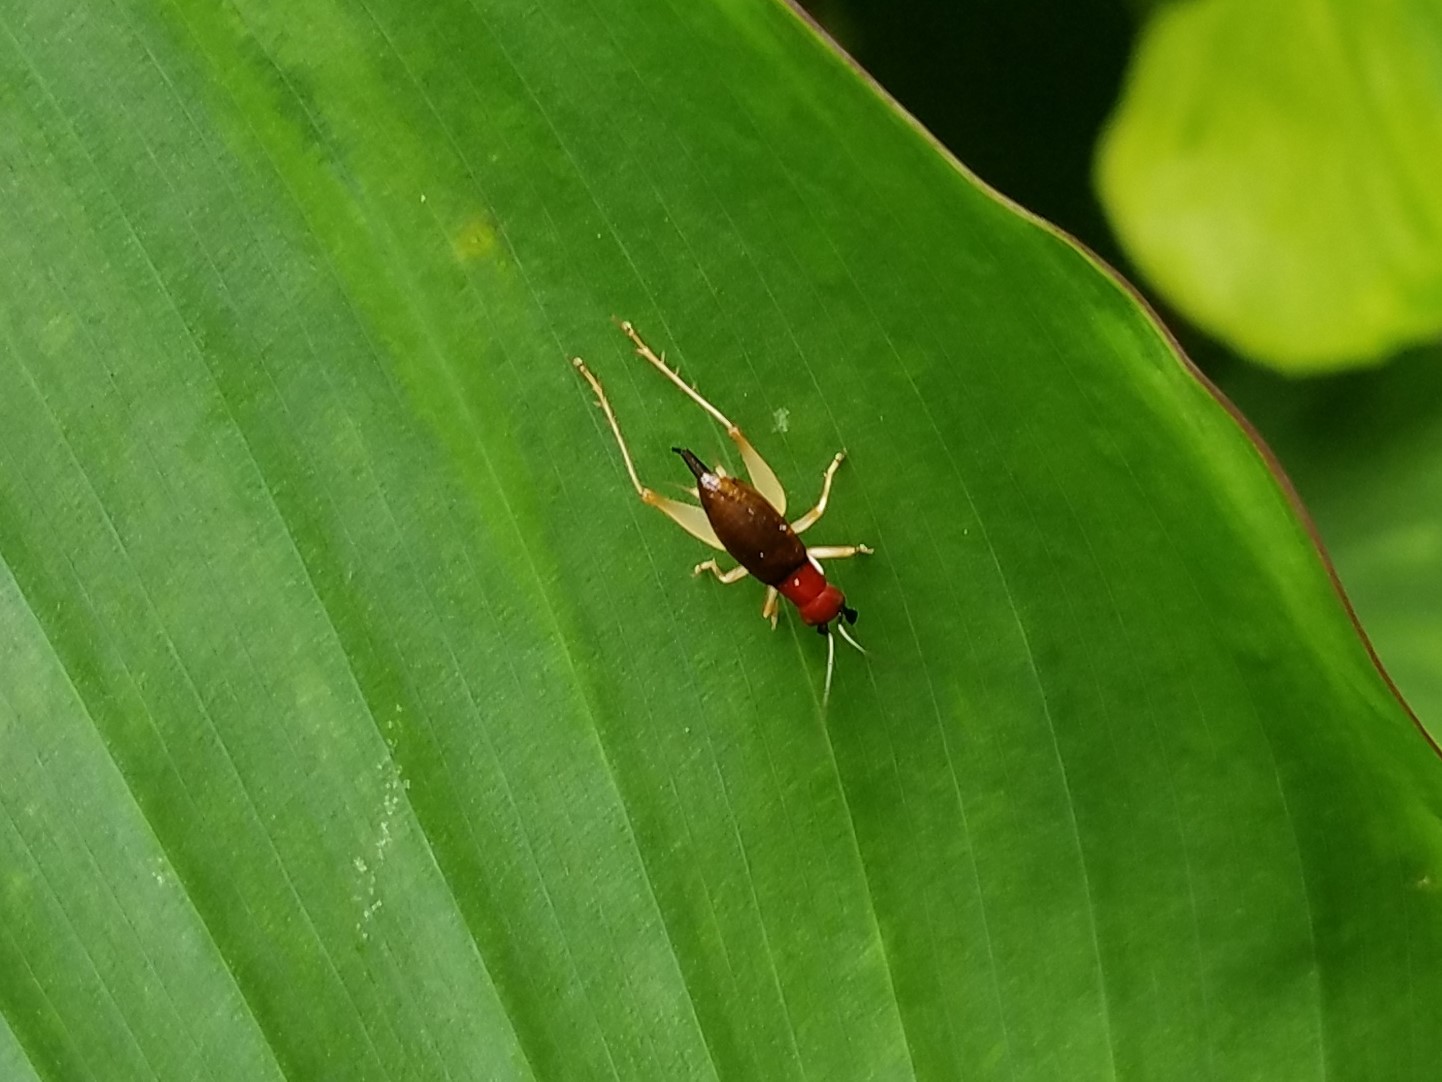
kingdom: Animalia
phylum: Arthropoda
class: Insecta
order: Orthoptera
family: Trigonidiidae
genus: Phyllopalpus
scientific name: Phyllopalpus pulchellus
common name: Handsome trig
